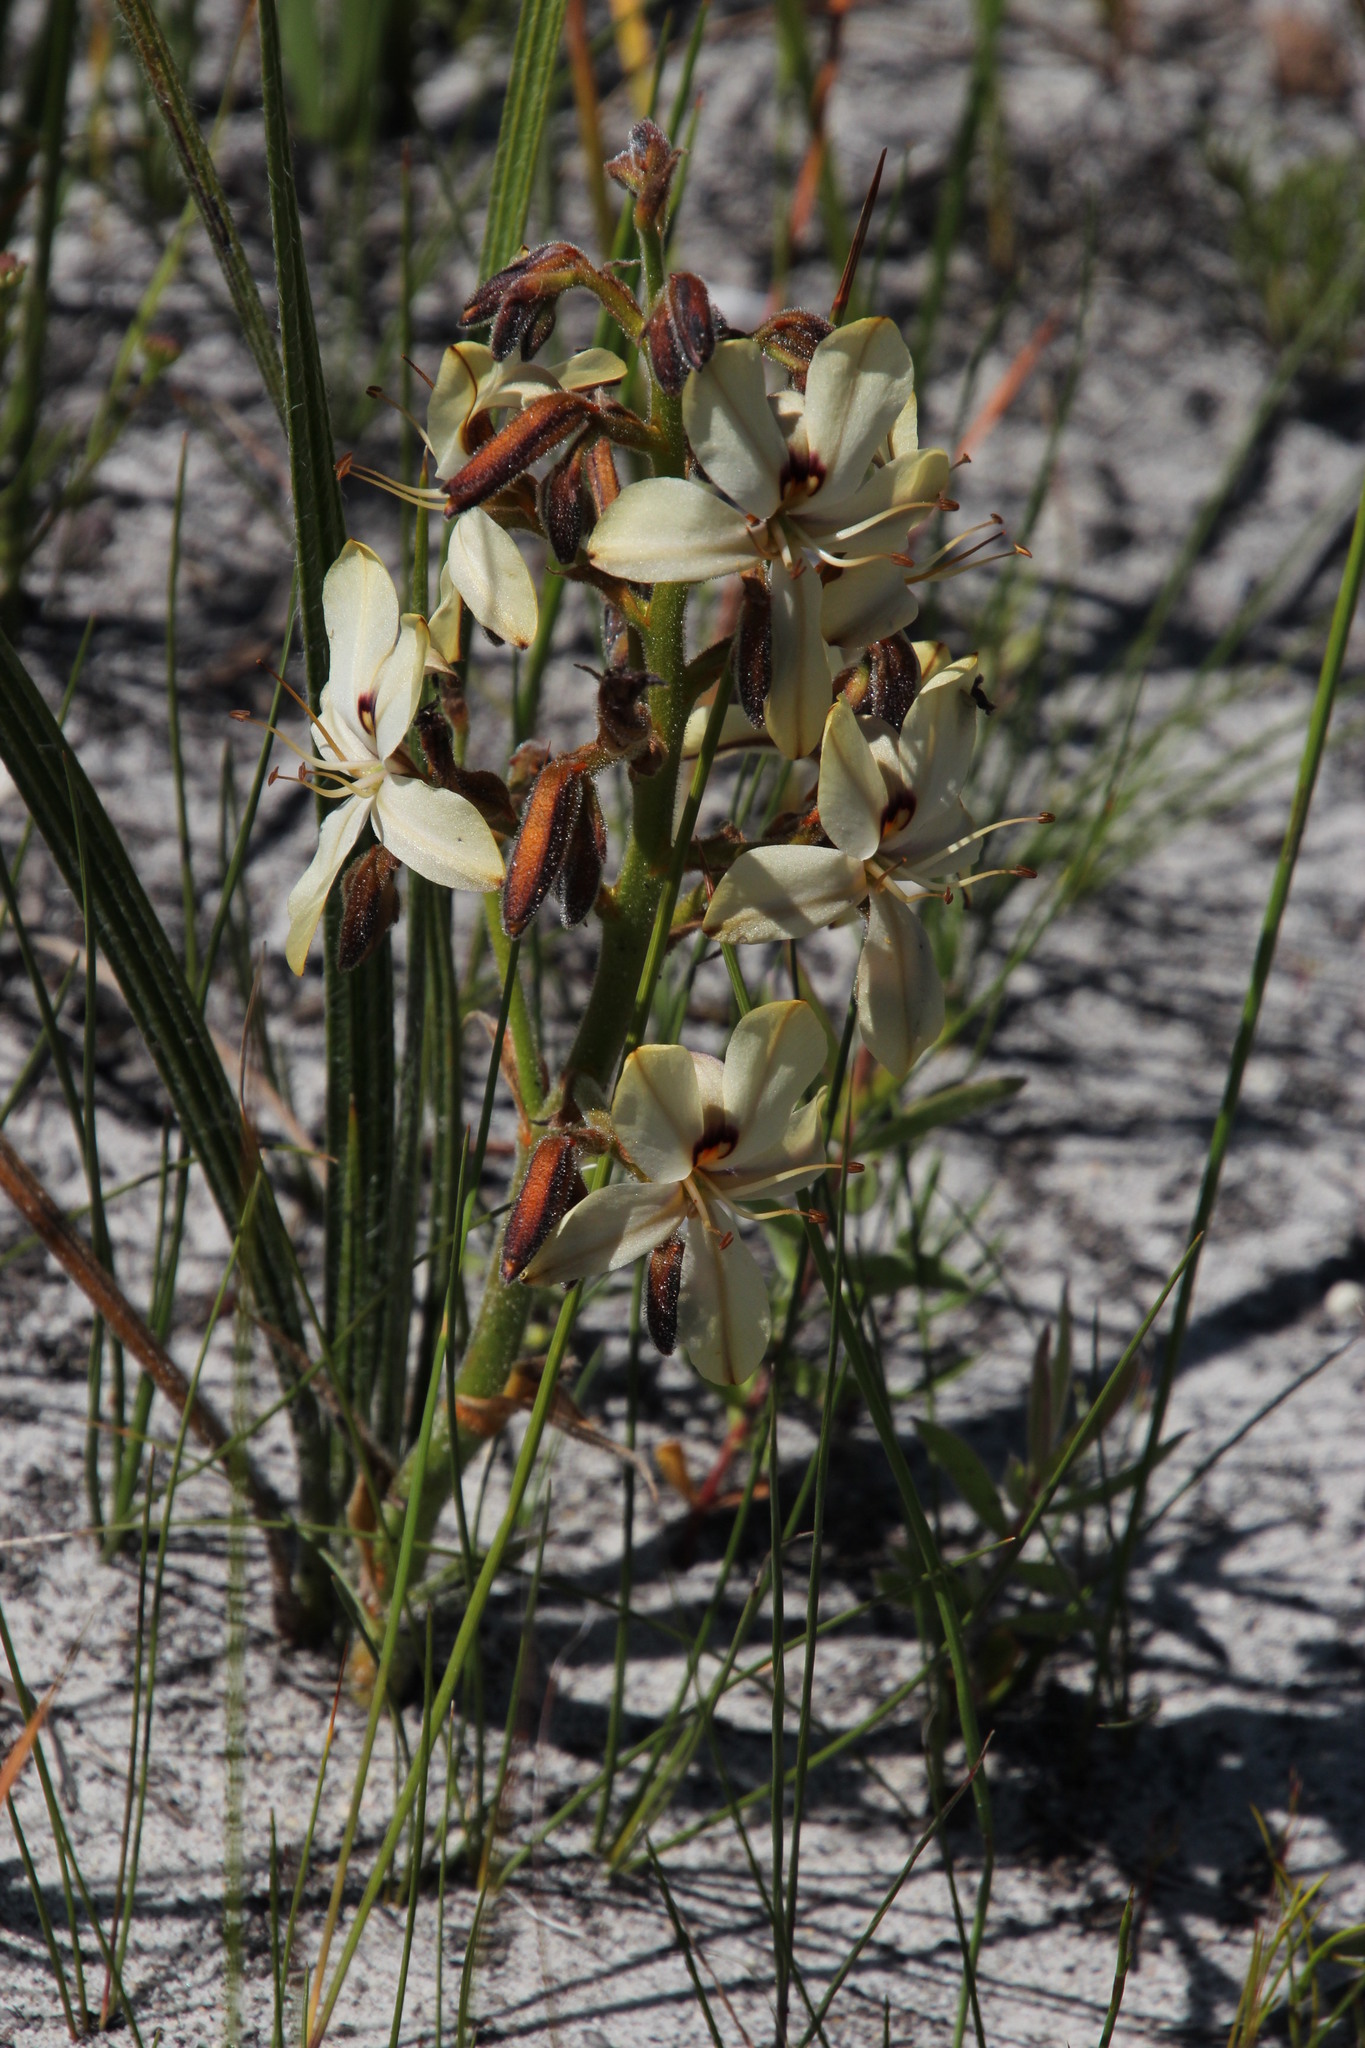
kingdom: Plantae
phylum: Tracheophyta
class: Liliopsida
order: Commelinales
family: Haemodoraceae
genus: Wachendorfia
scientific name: Wachendorfia paniculata
